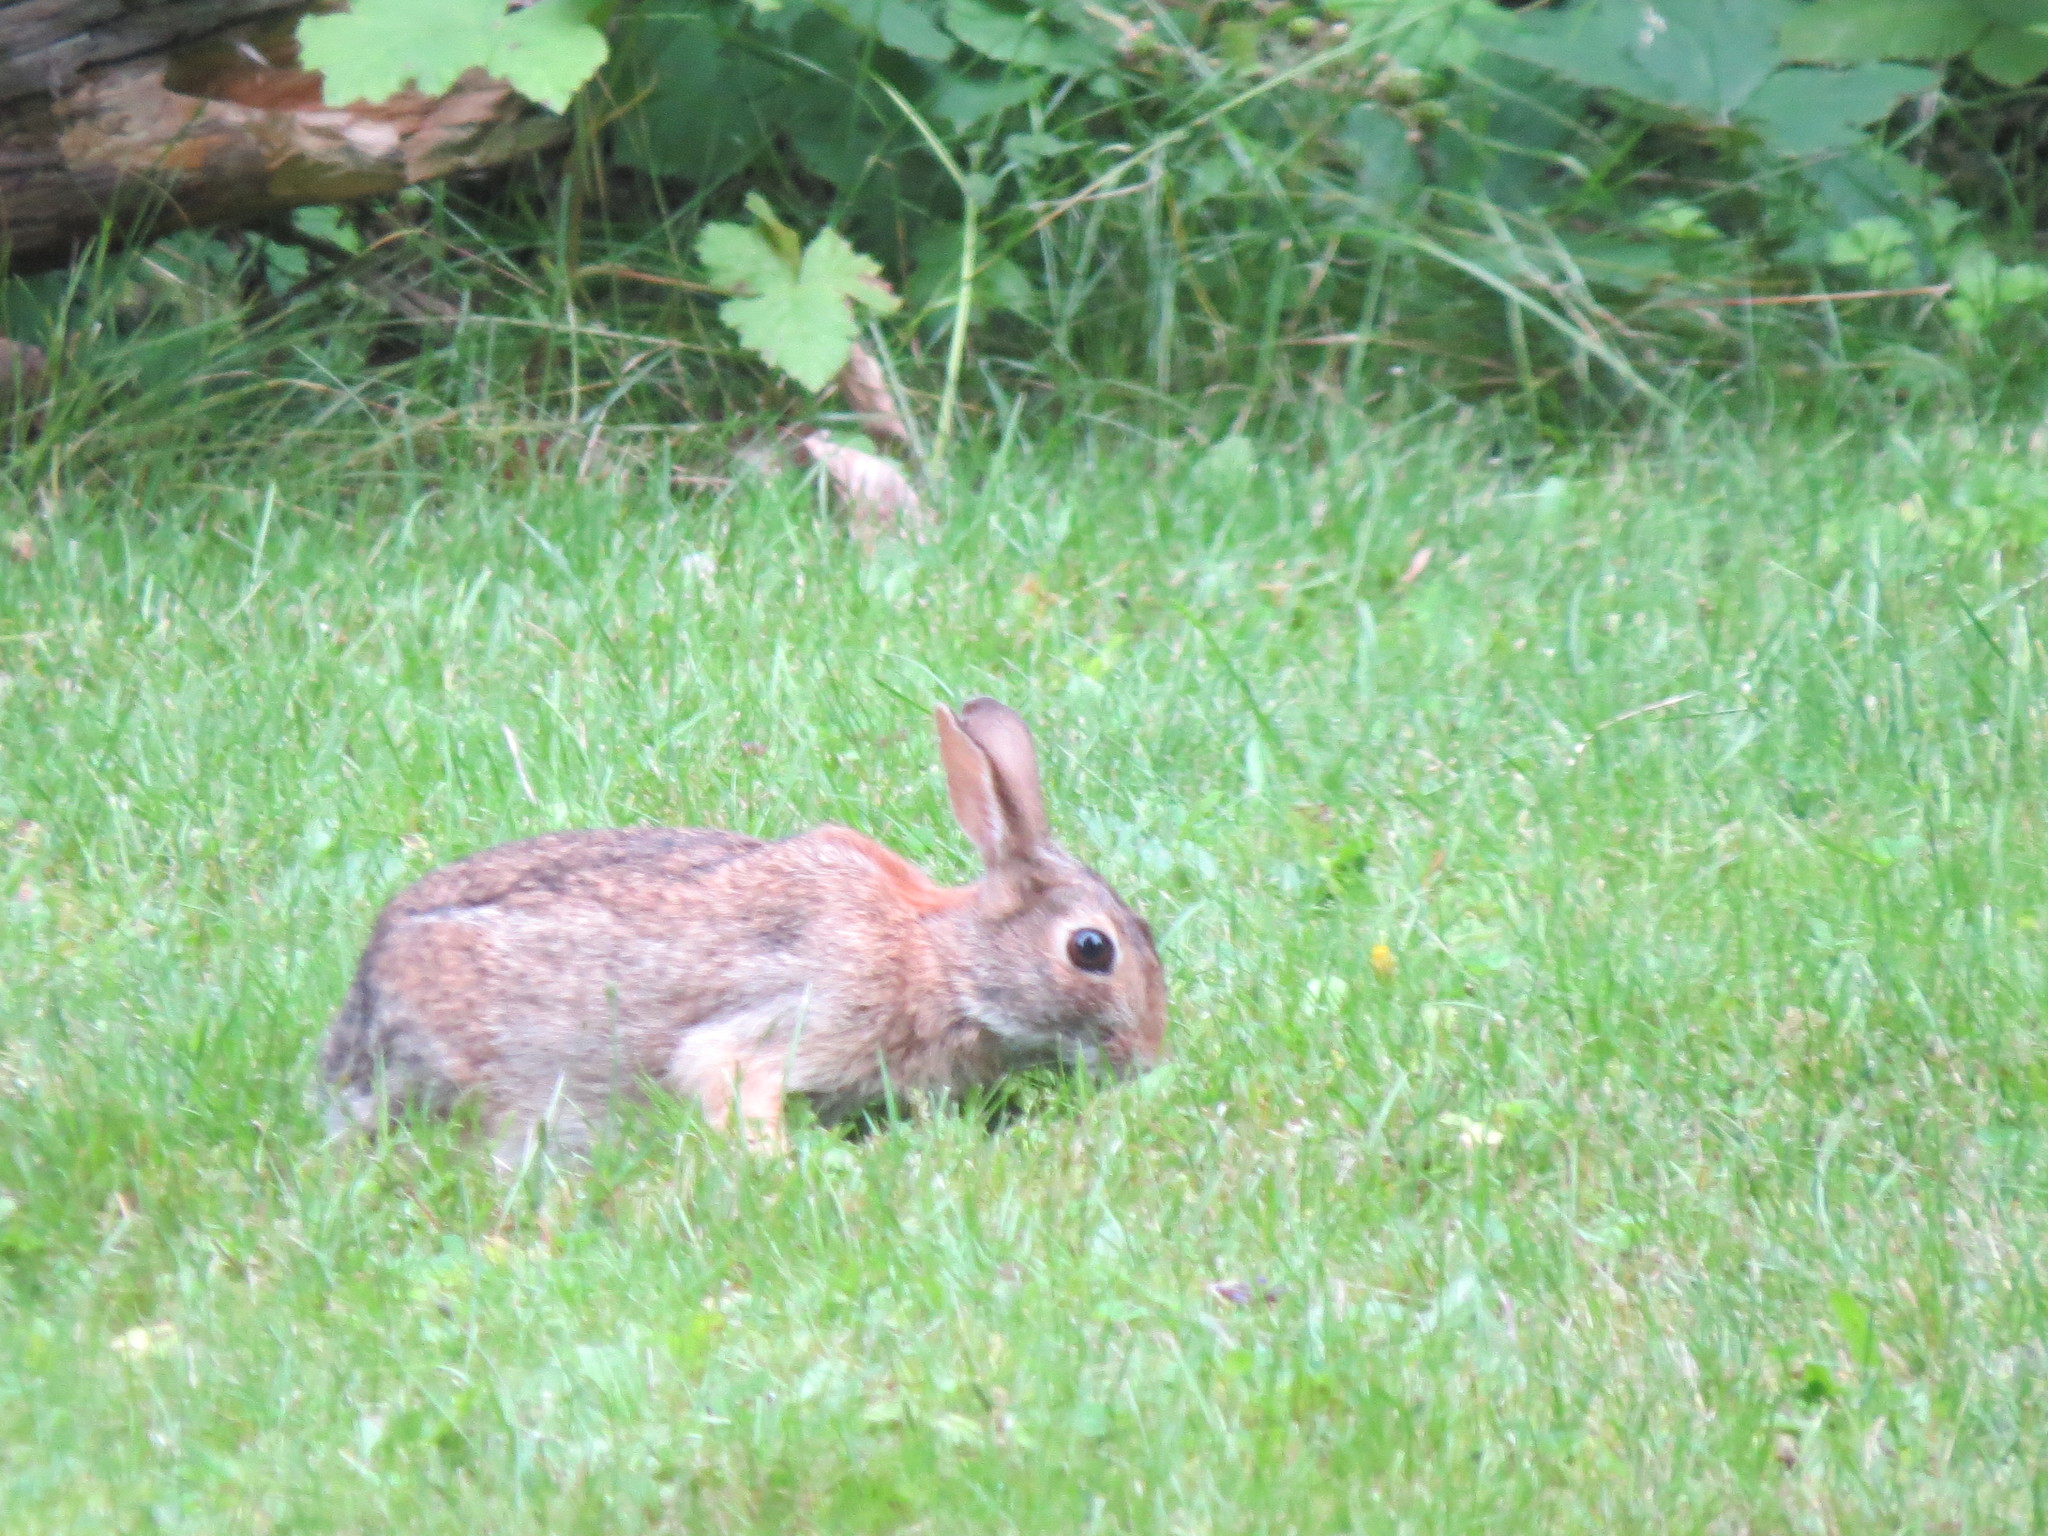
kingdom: Animalia
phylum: Chordata
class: Mammalia
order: Lagomorpha
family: Leporidae
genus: Sylvilagus
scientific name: Sylvilagus floridanus
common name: Eastern cottontail
